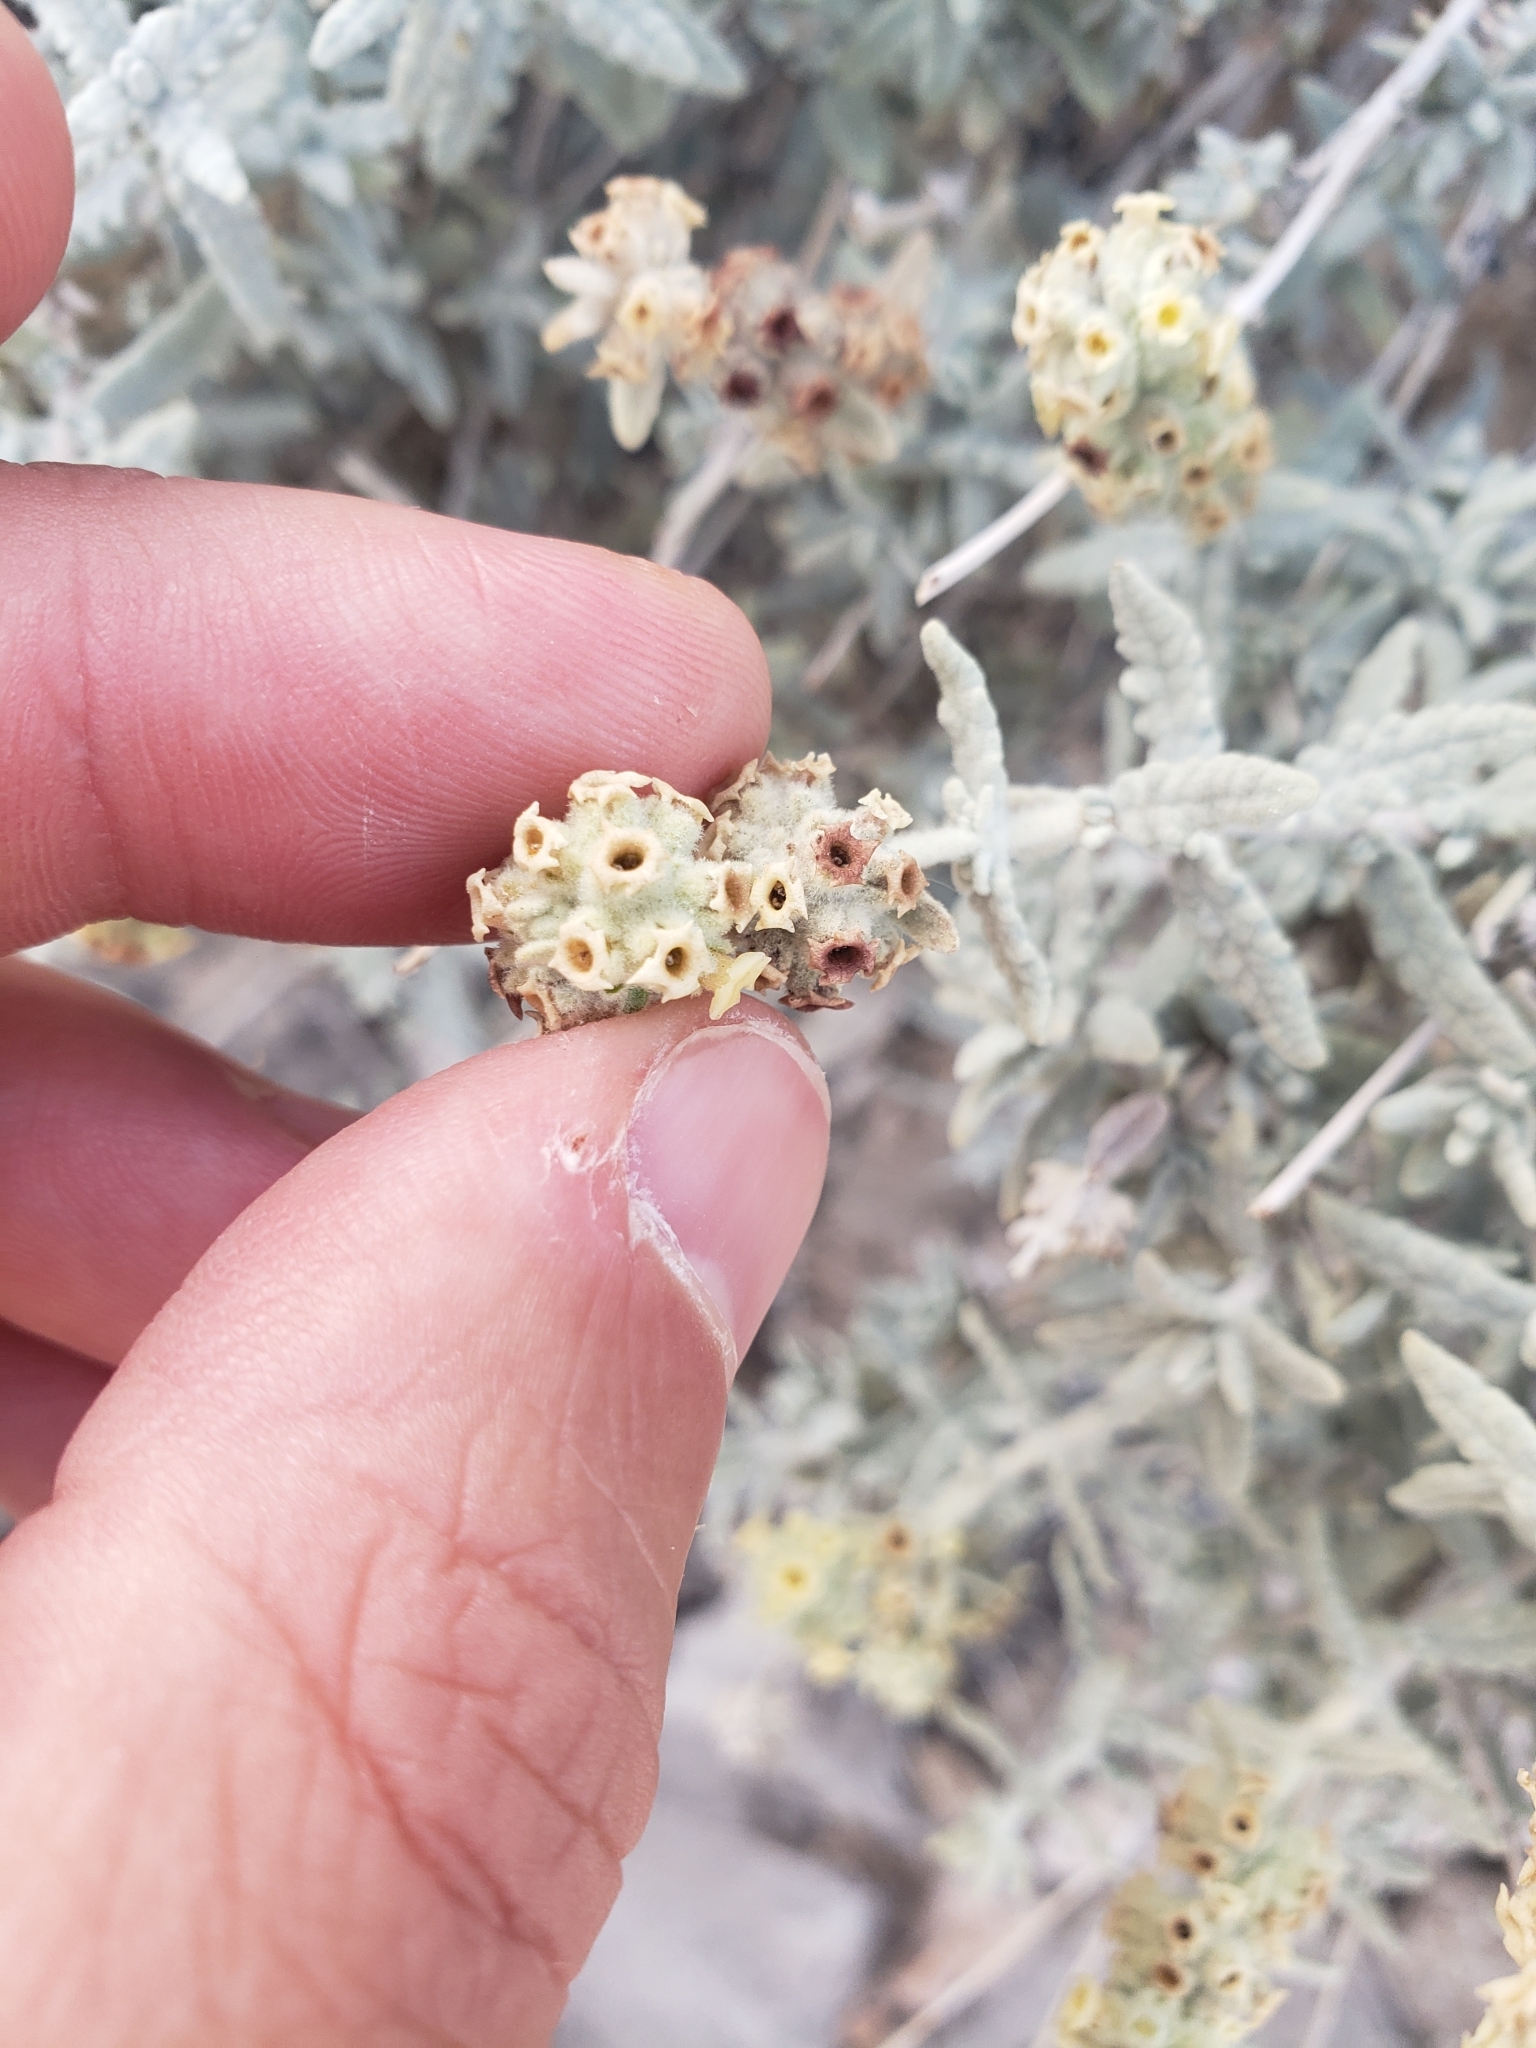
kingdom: Plantae
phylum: Tracheophyta
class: Magnoliopsida
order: Lamiales
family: Scrophulariaceae
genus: Buddleja
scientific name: Buddleja utahensis
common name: Utah butterfly-bush
